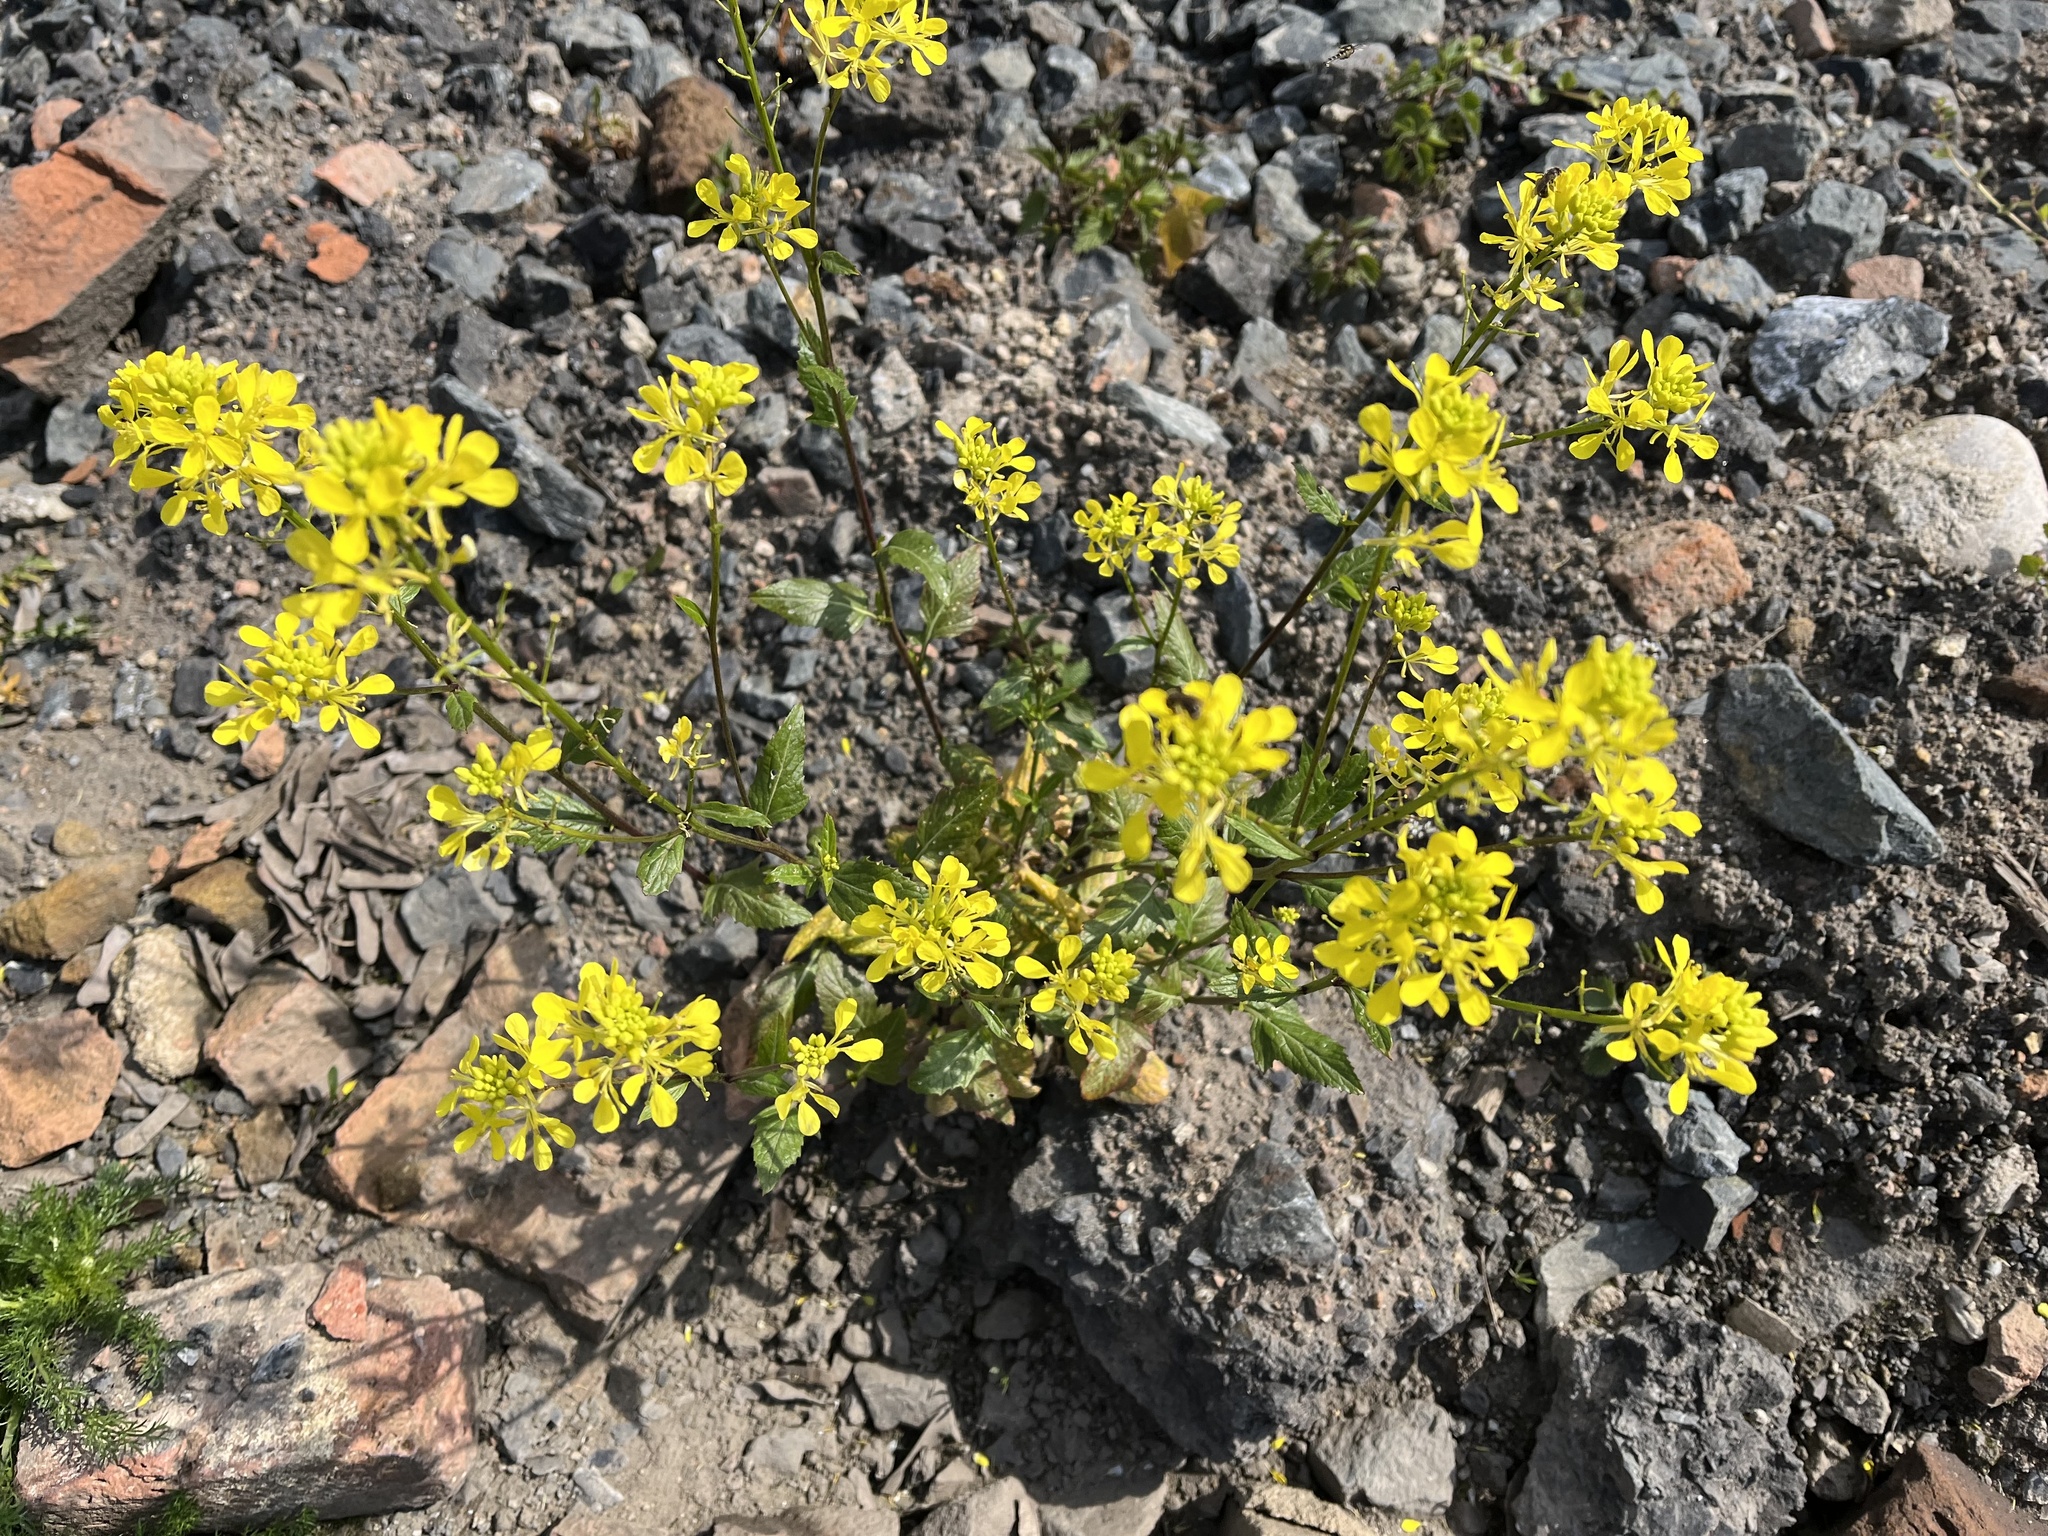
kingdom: Plantae
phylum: Tracheophyta
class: Magnoliopsida
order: Brassicales
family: Brassicaceae
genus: Sinapis
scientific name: Sinapis arvensis
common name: Charlock
